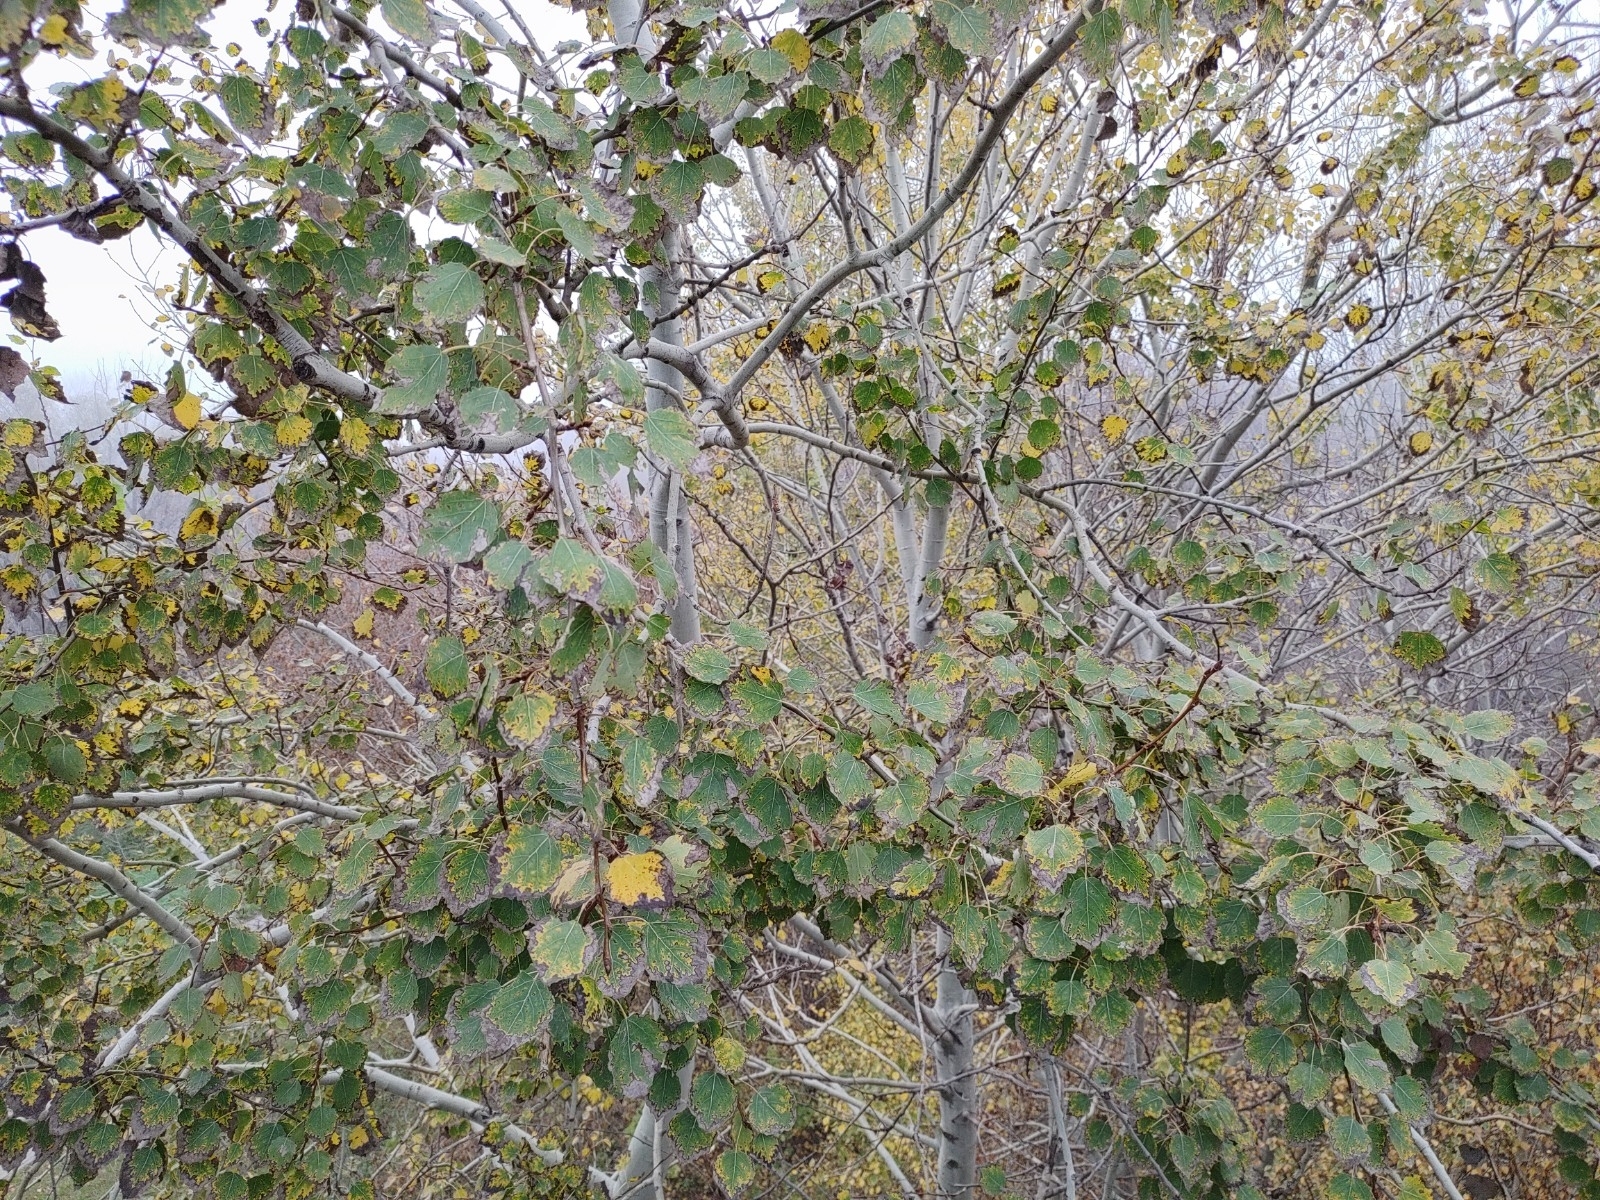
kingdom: Plantae
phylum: Tracheophyta
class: Magnoliopsida
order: Malpighiales
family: Salicaceae
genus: Populus
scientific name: Populus tremula
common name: European aspen
